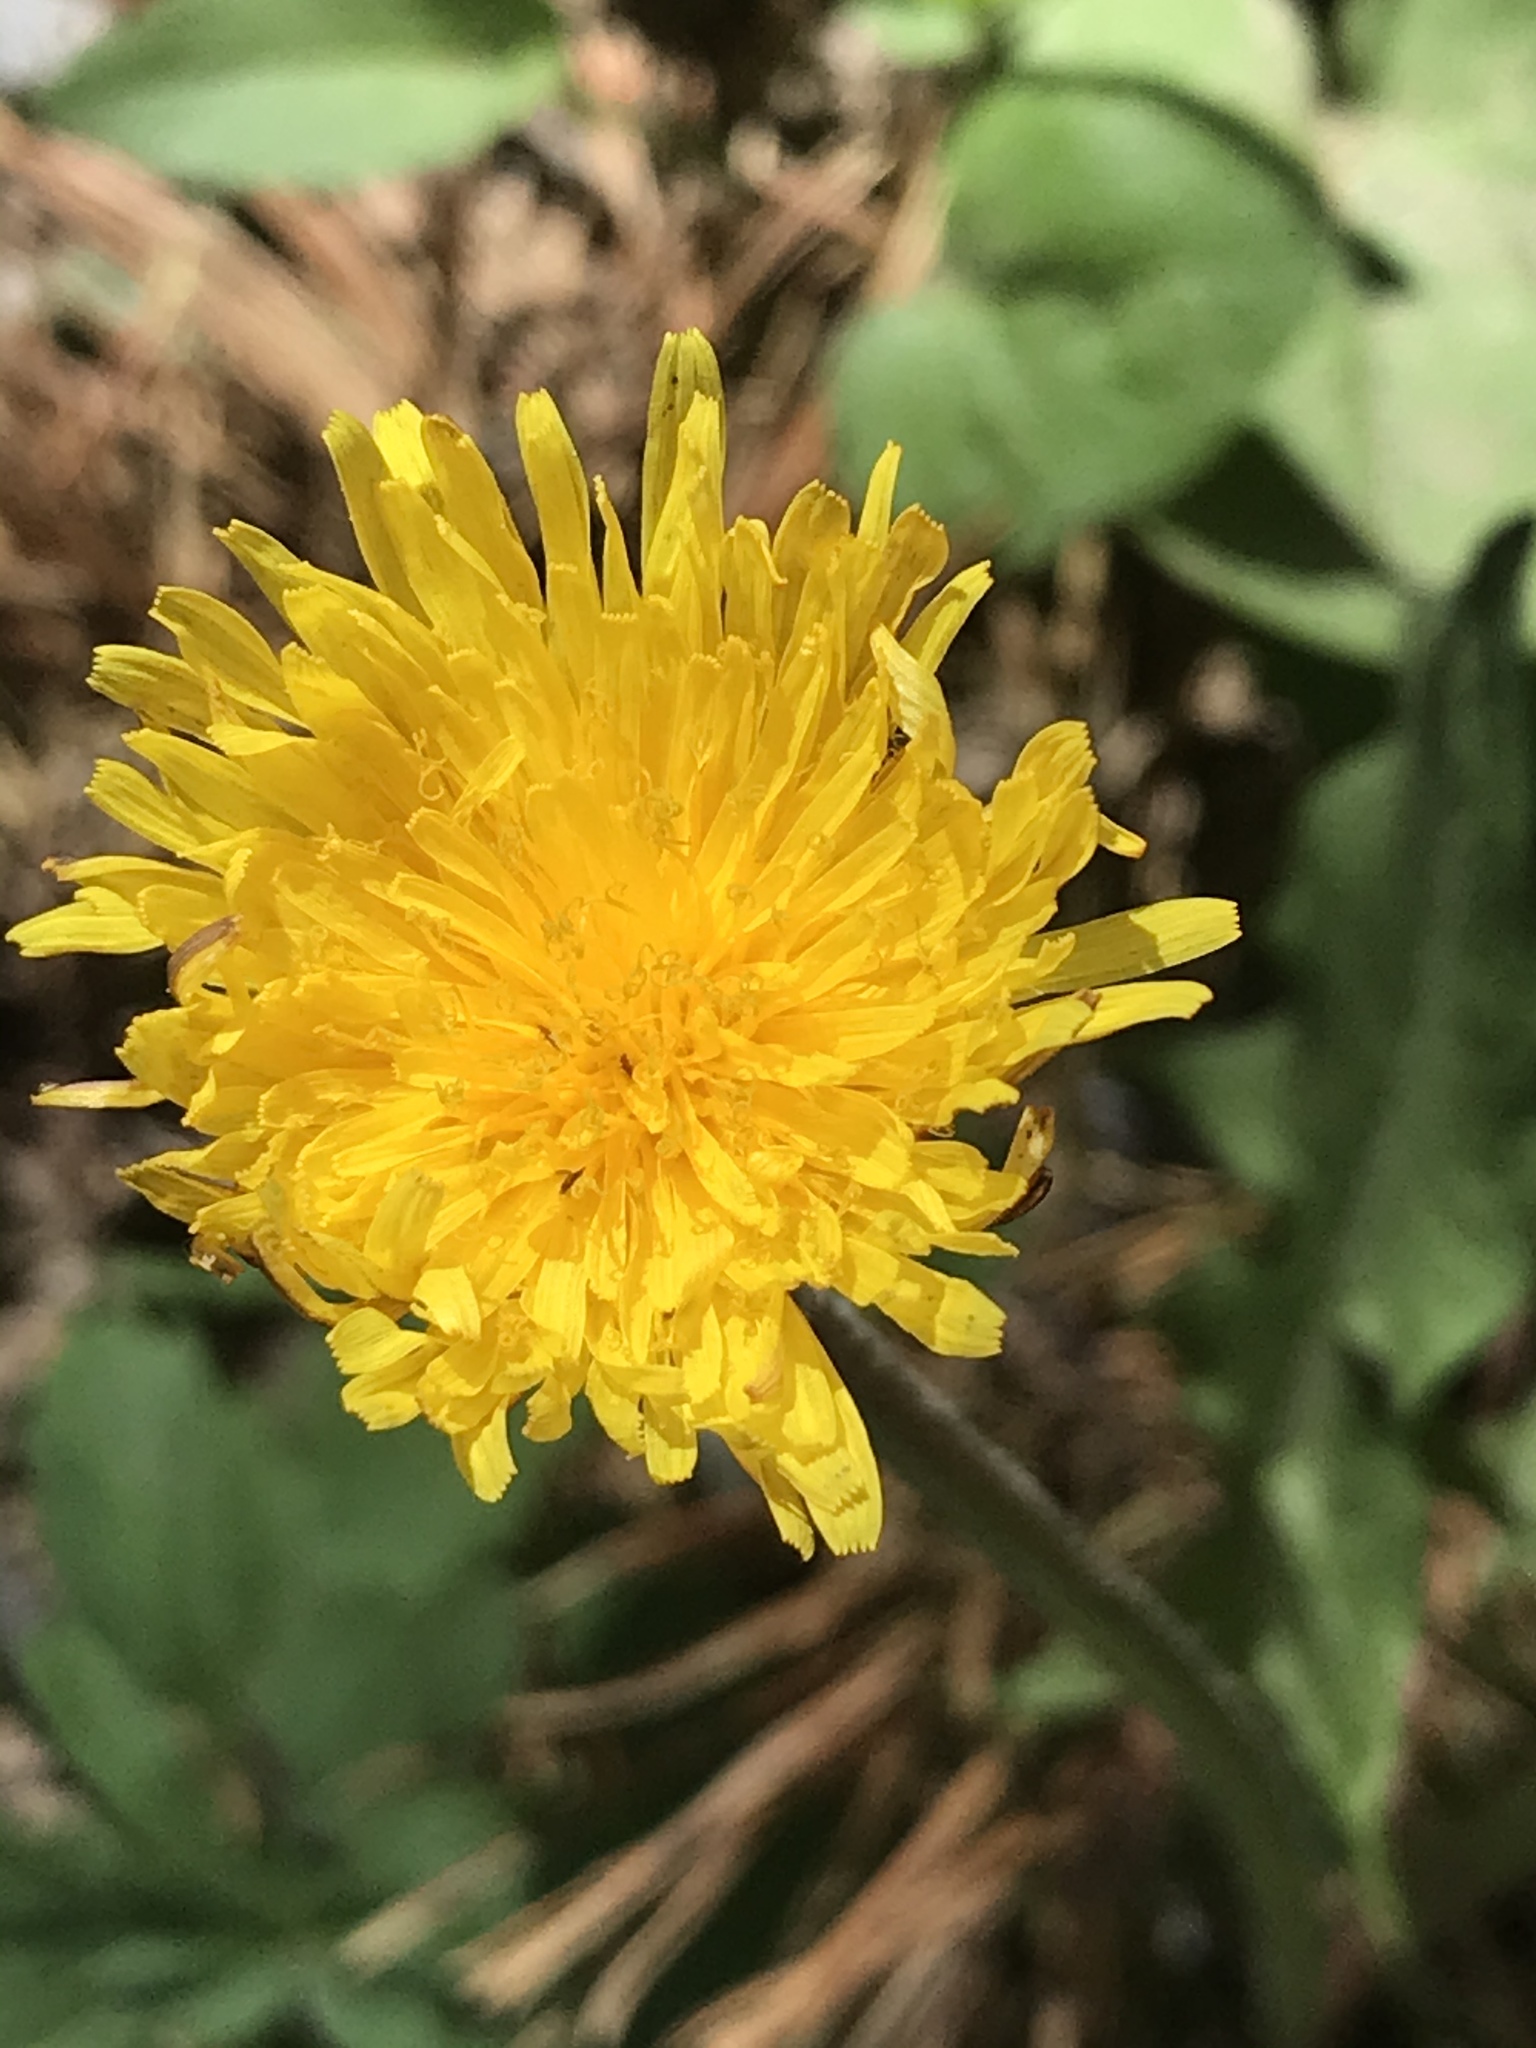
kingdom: Plantae
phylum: Tracheophyta
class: Magnoliopsida
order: Asterales
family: Asteraceae
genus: Taraxacum
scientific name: Taraxacum officinale
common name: Common dandelion
